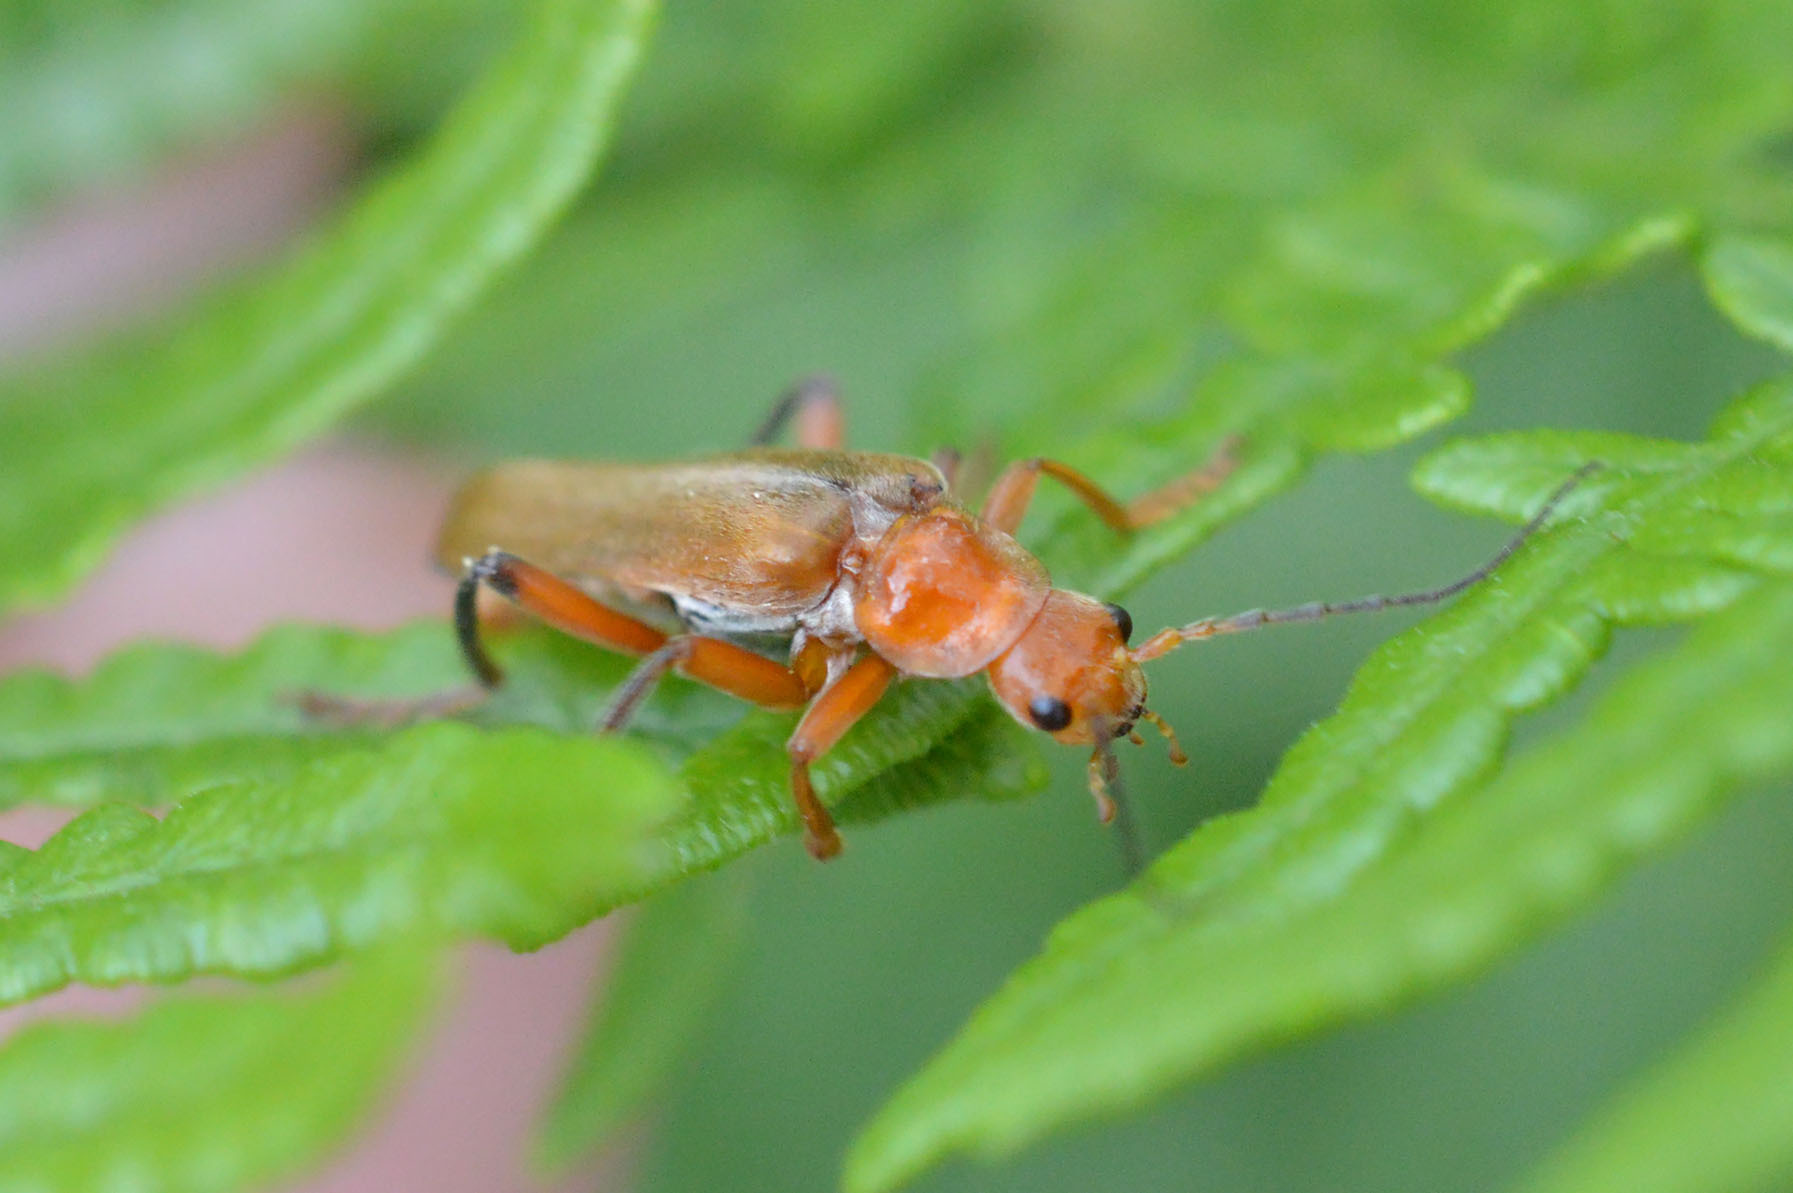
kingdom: Animalia
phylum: Arthropoda
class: Insecta
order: Coleoptera
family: Cantharidae
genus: Cantharis
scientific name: Cantharis livida
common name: Livid soldier beetle
